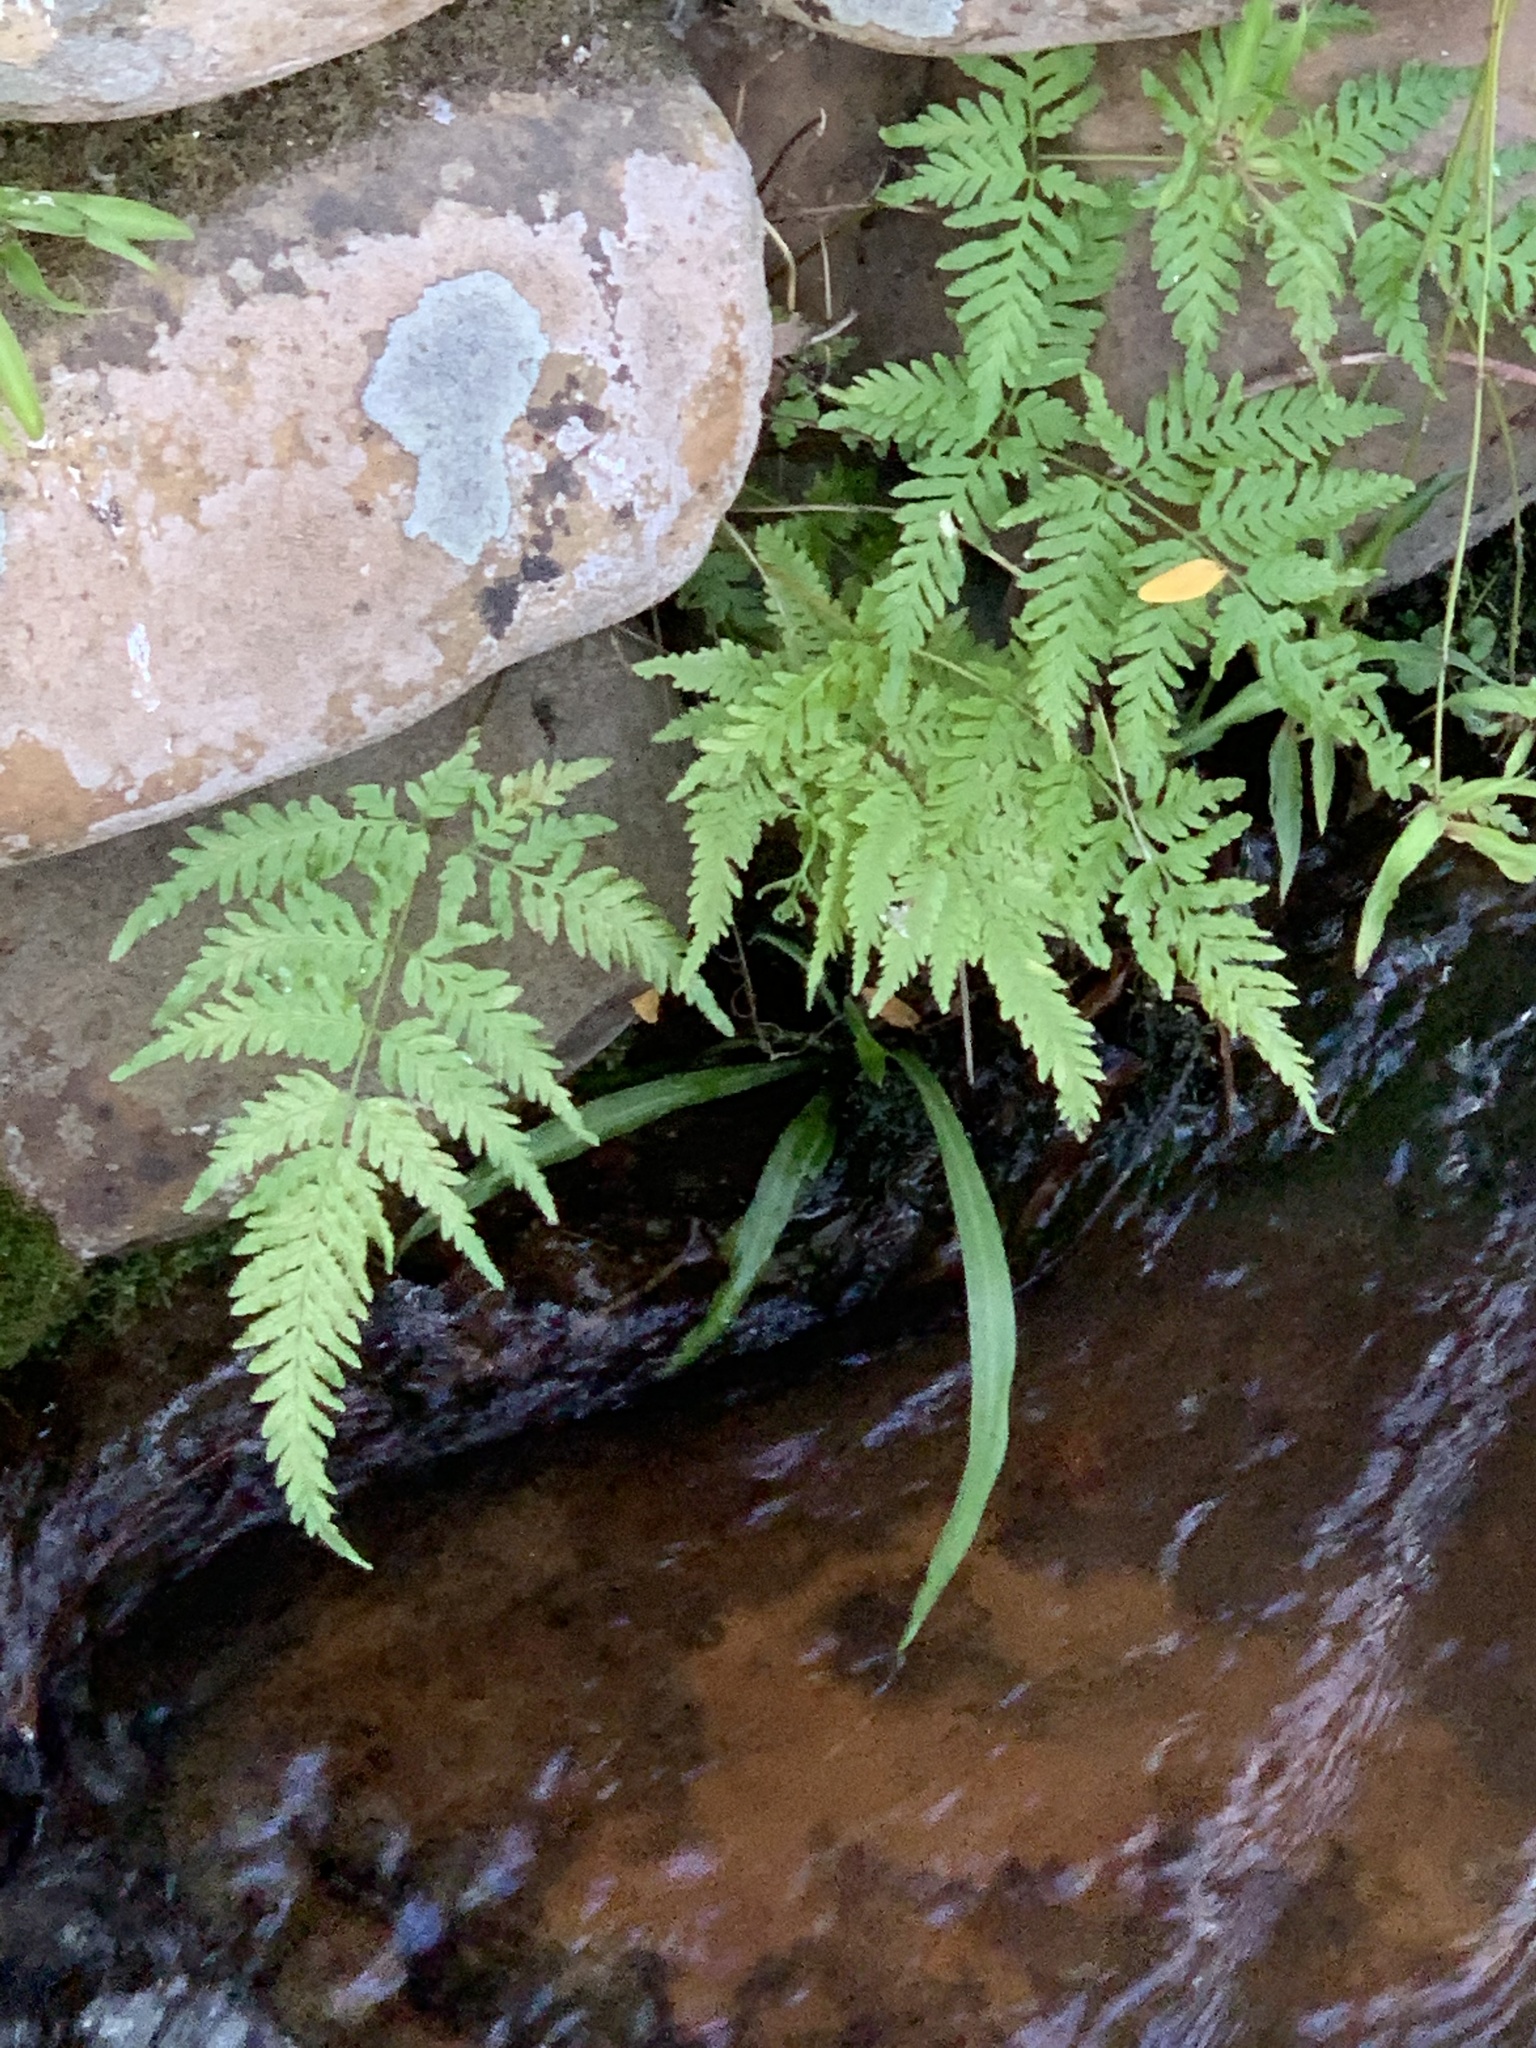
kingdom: Plantae
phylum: Tracheophyta
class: Polypodiopsida
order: Polypodiales
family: Pteridaceae
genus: Pteris
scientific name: Pteris tremula
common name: Australian brake
